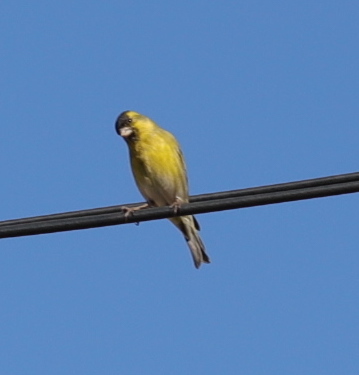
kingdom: Animalia
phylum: Chordata
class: Aves
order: Passeriformes
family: Fringillidae
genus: Spinus
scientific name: Spinus barbatus
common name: Black-chinned siskin
